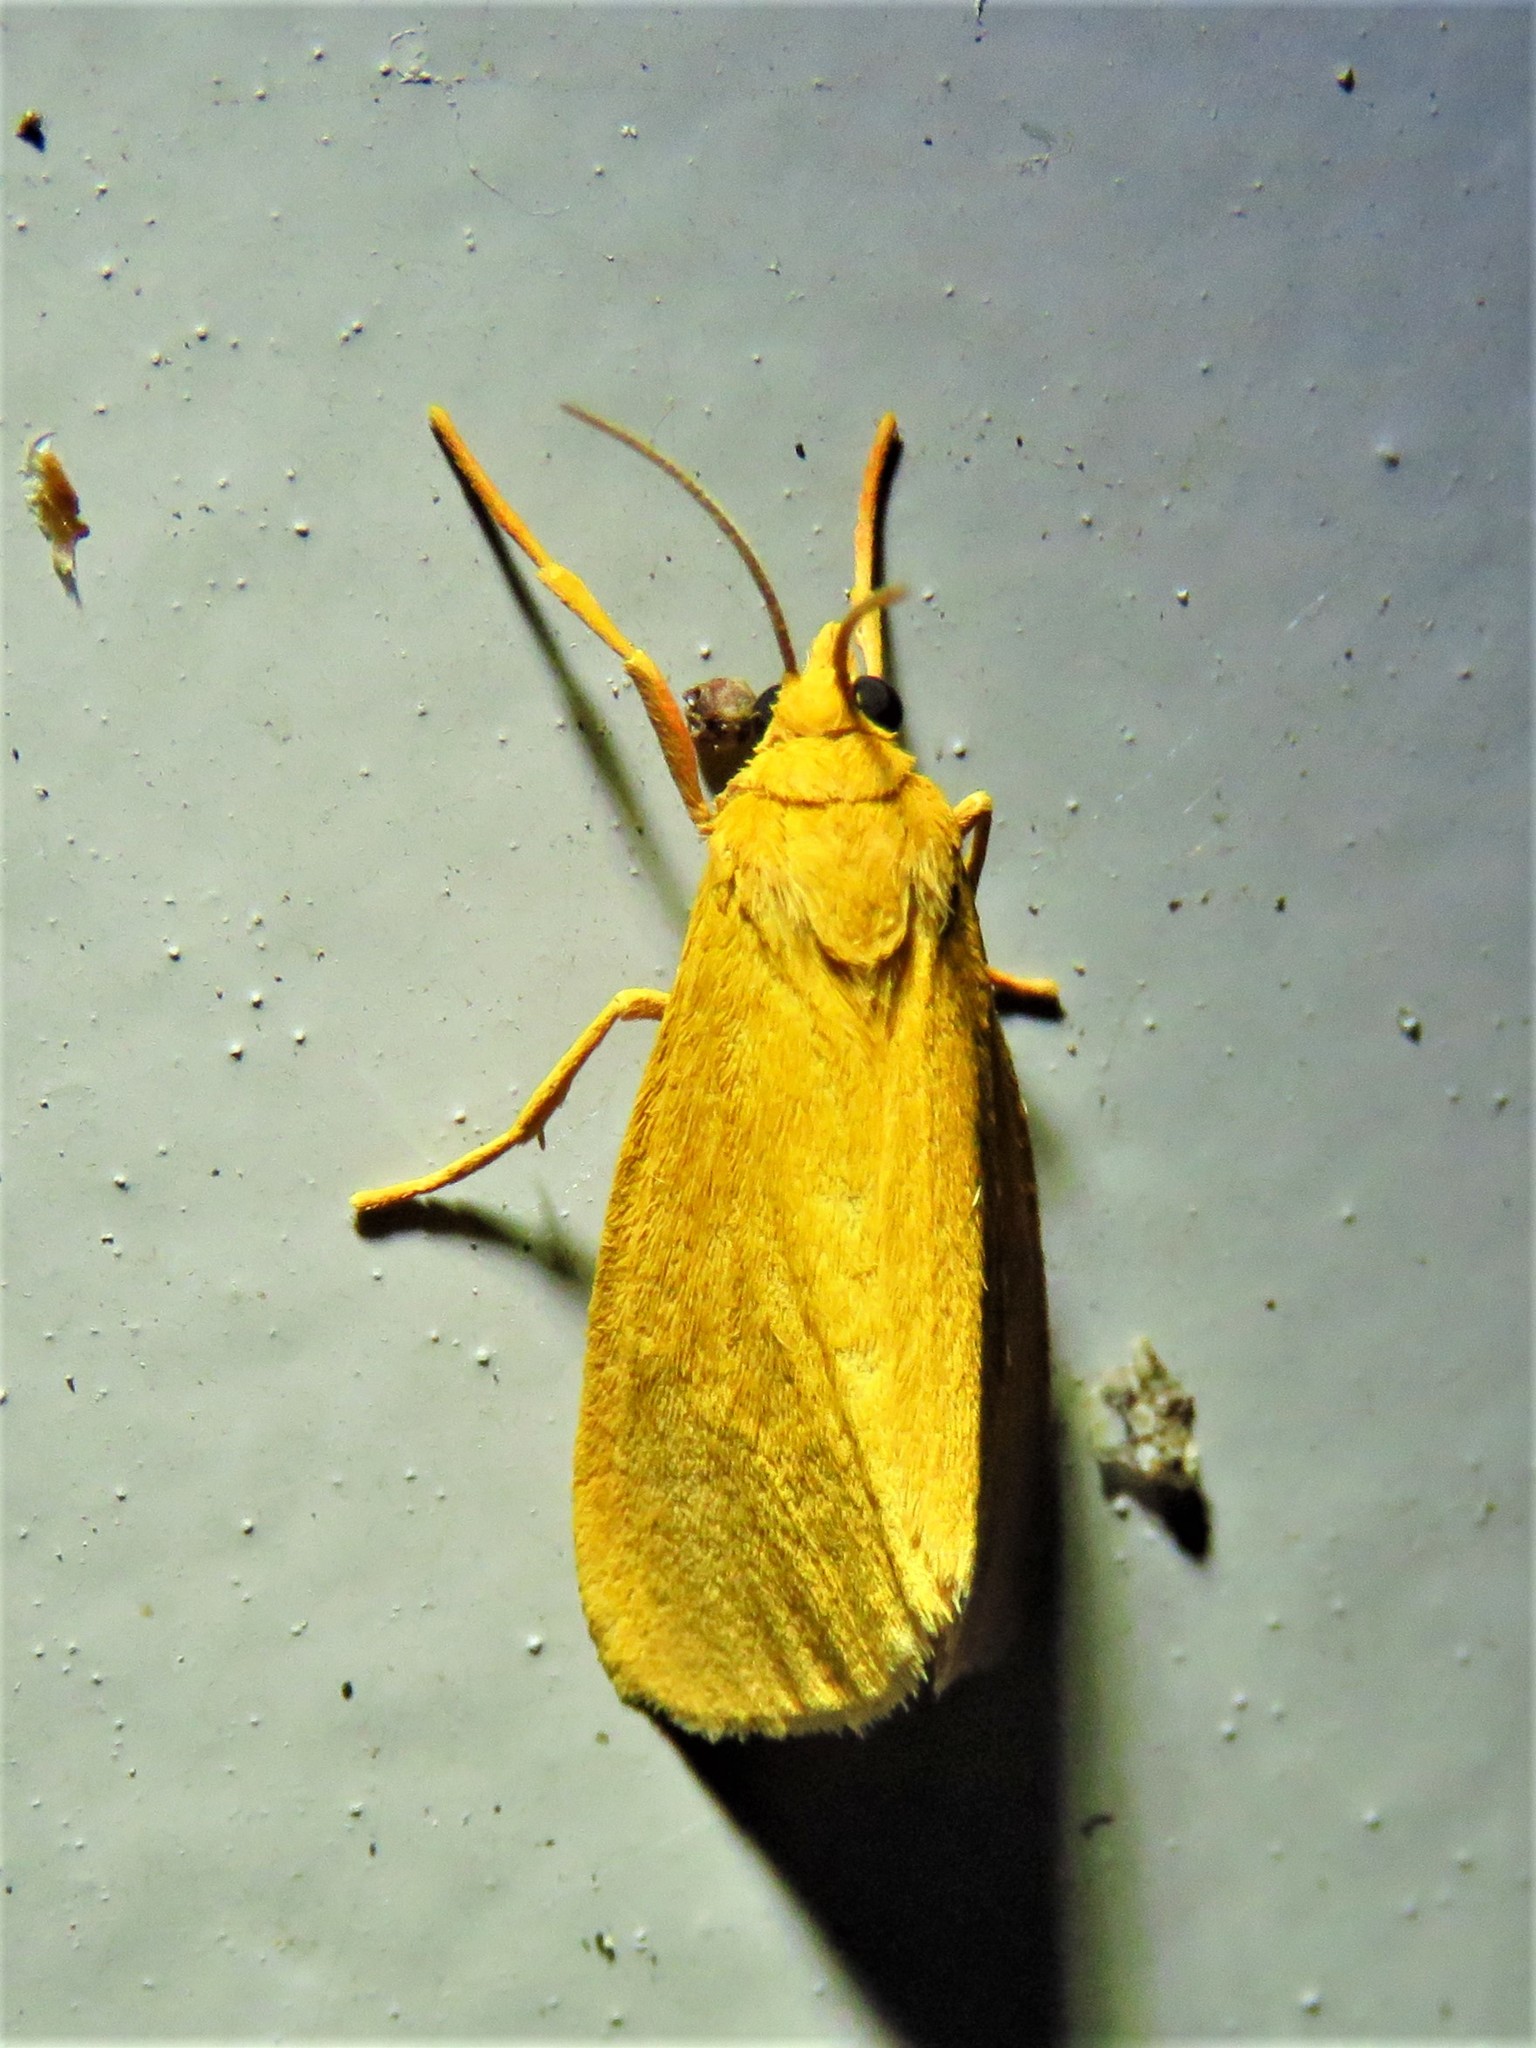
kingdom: Animalia
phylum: Arthropoda
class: Insecta
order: Lepidoptera
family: Erebidae
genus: Virbia
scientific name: Virbia aurantiaca
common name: Orange virbia moth
